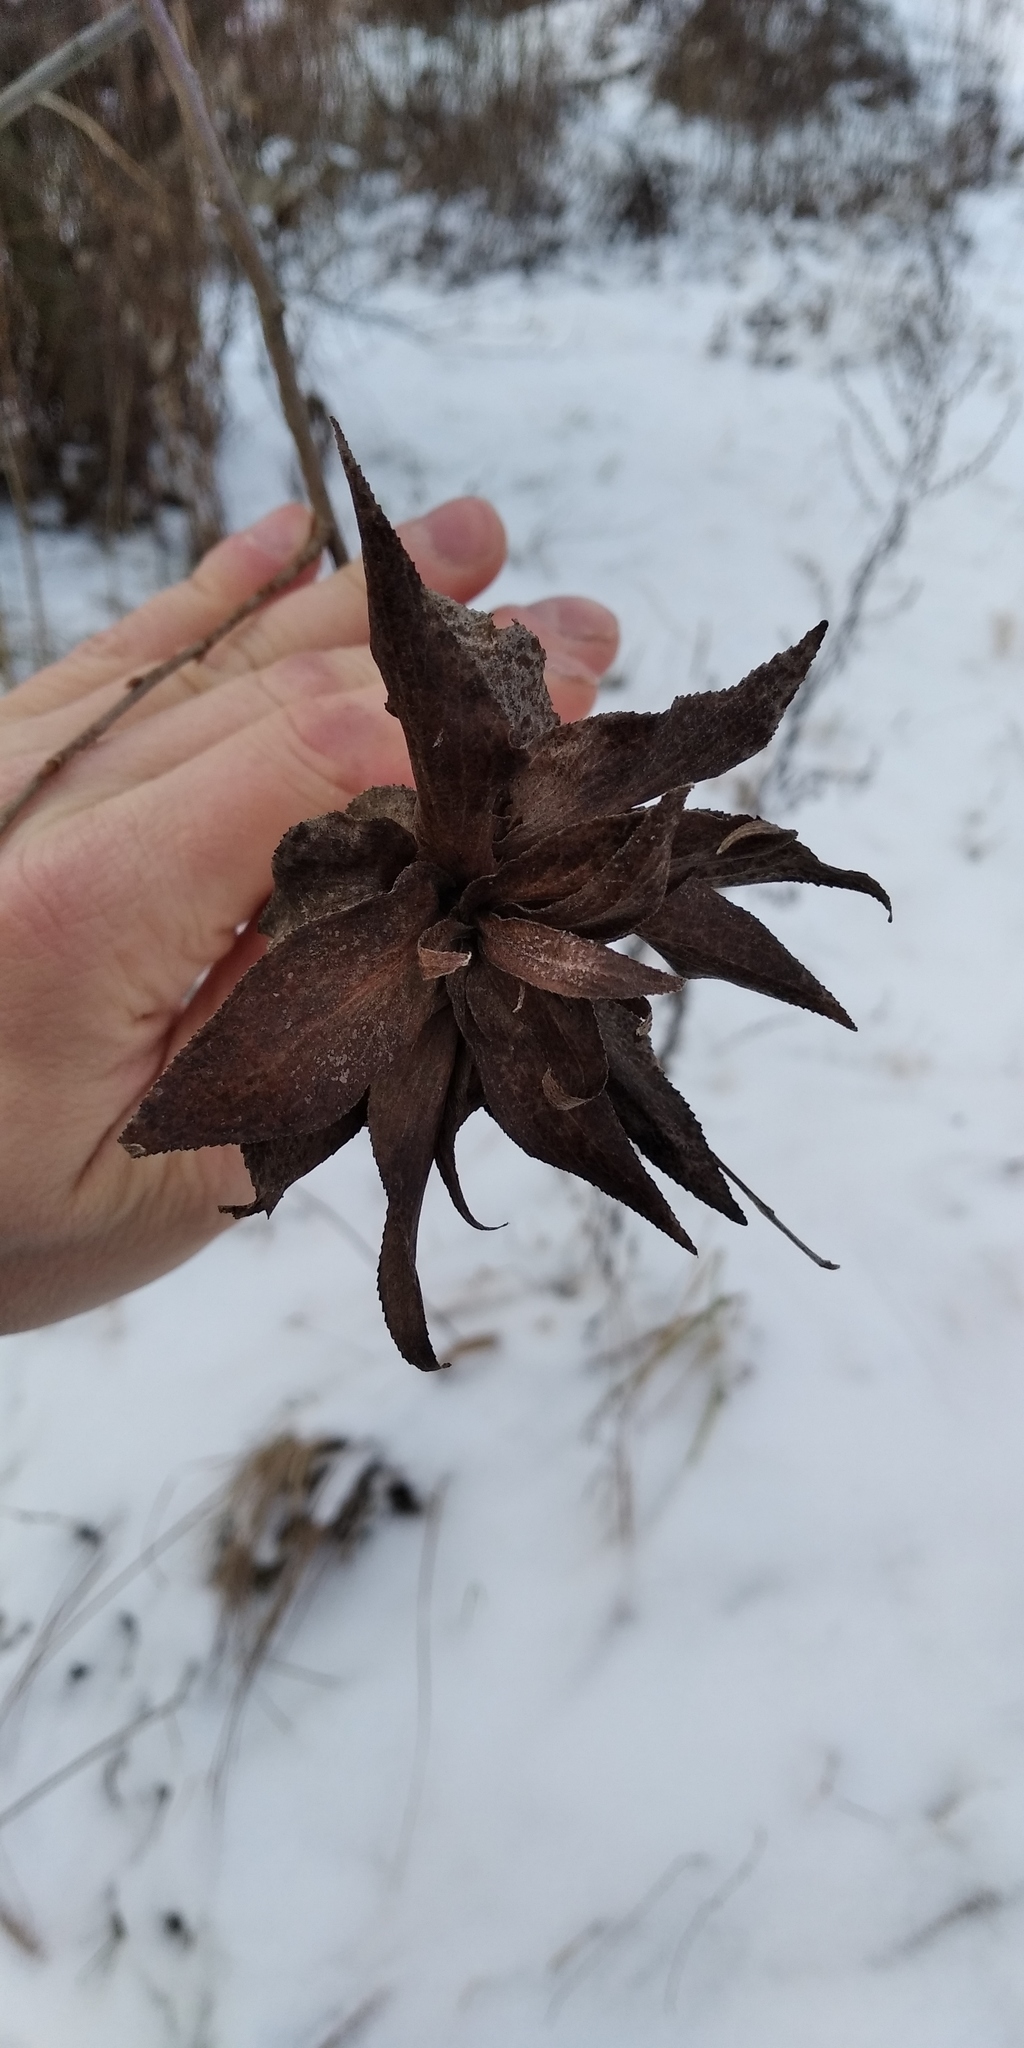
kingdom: Plantae
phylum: Tracheophyta
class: Magnoliopsida
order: Fagales
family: Betulaceae
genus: Carpinus
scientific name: Carpinus betulus
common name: Hornbeam
